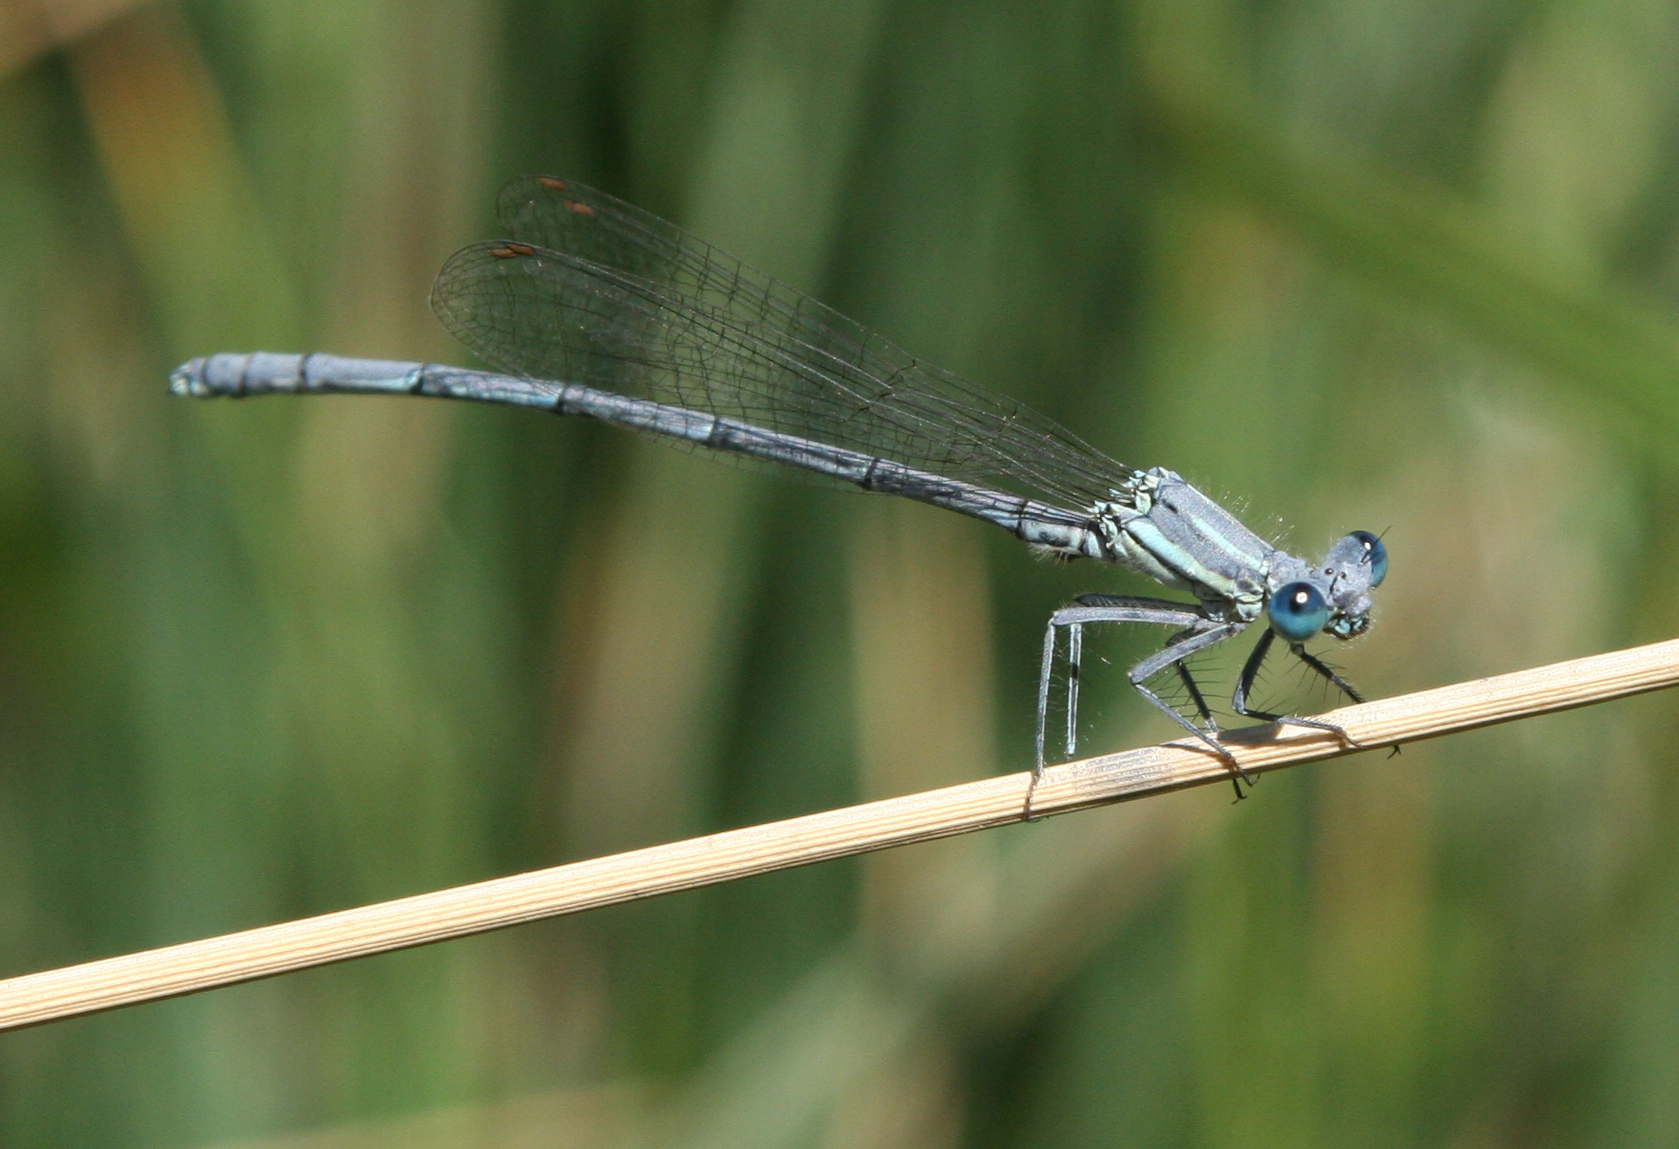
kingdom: Animalia
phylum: Arthropoda
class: Insecta
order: Odonata
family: Platycnemididae
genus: Platycnemis
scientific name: Platycnemis kervillei
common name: Kerville's featherleg
